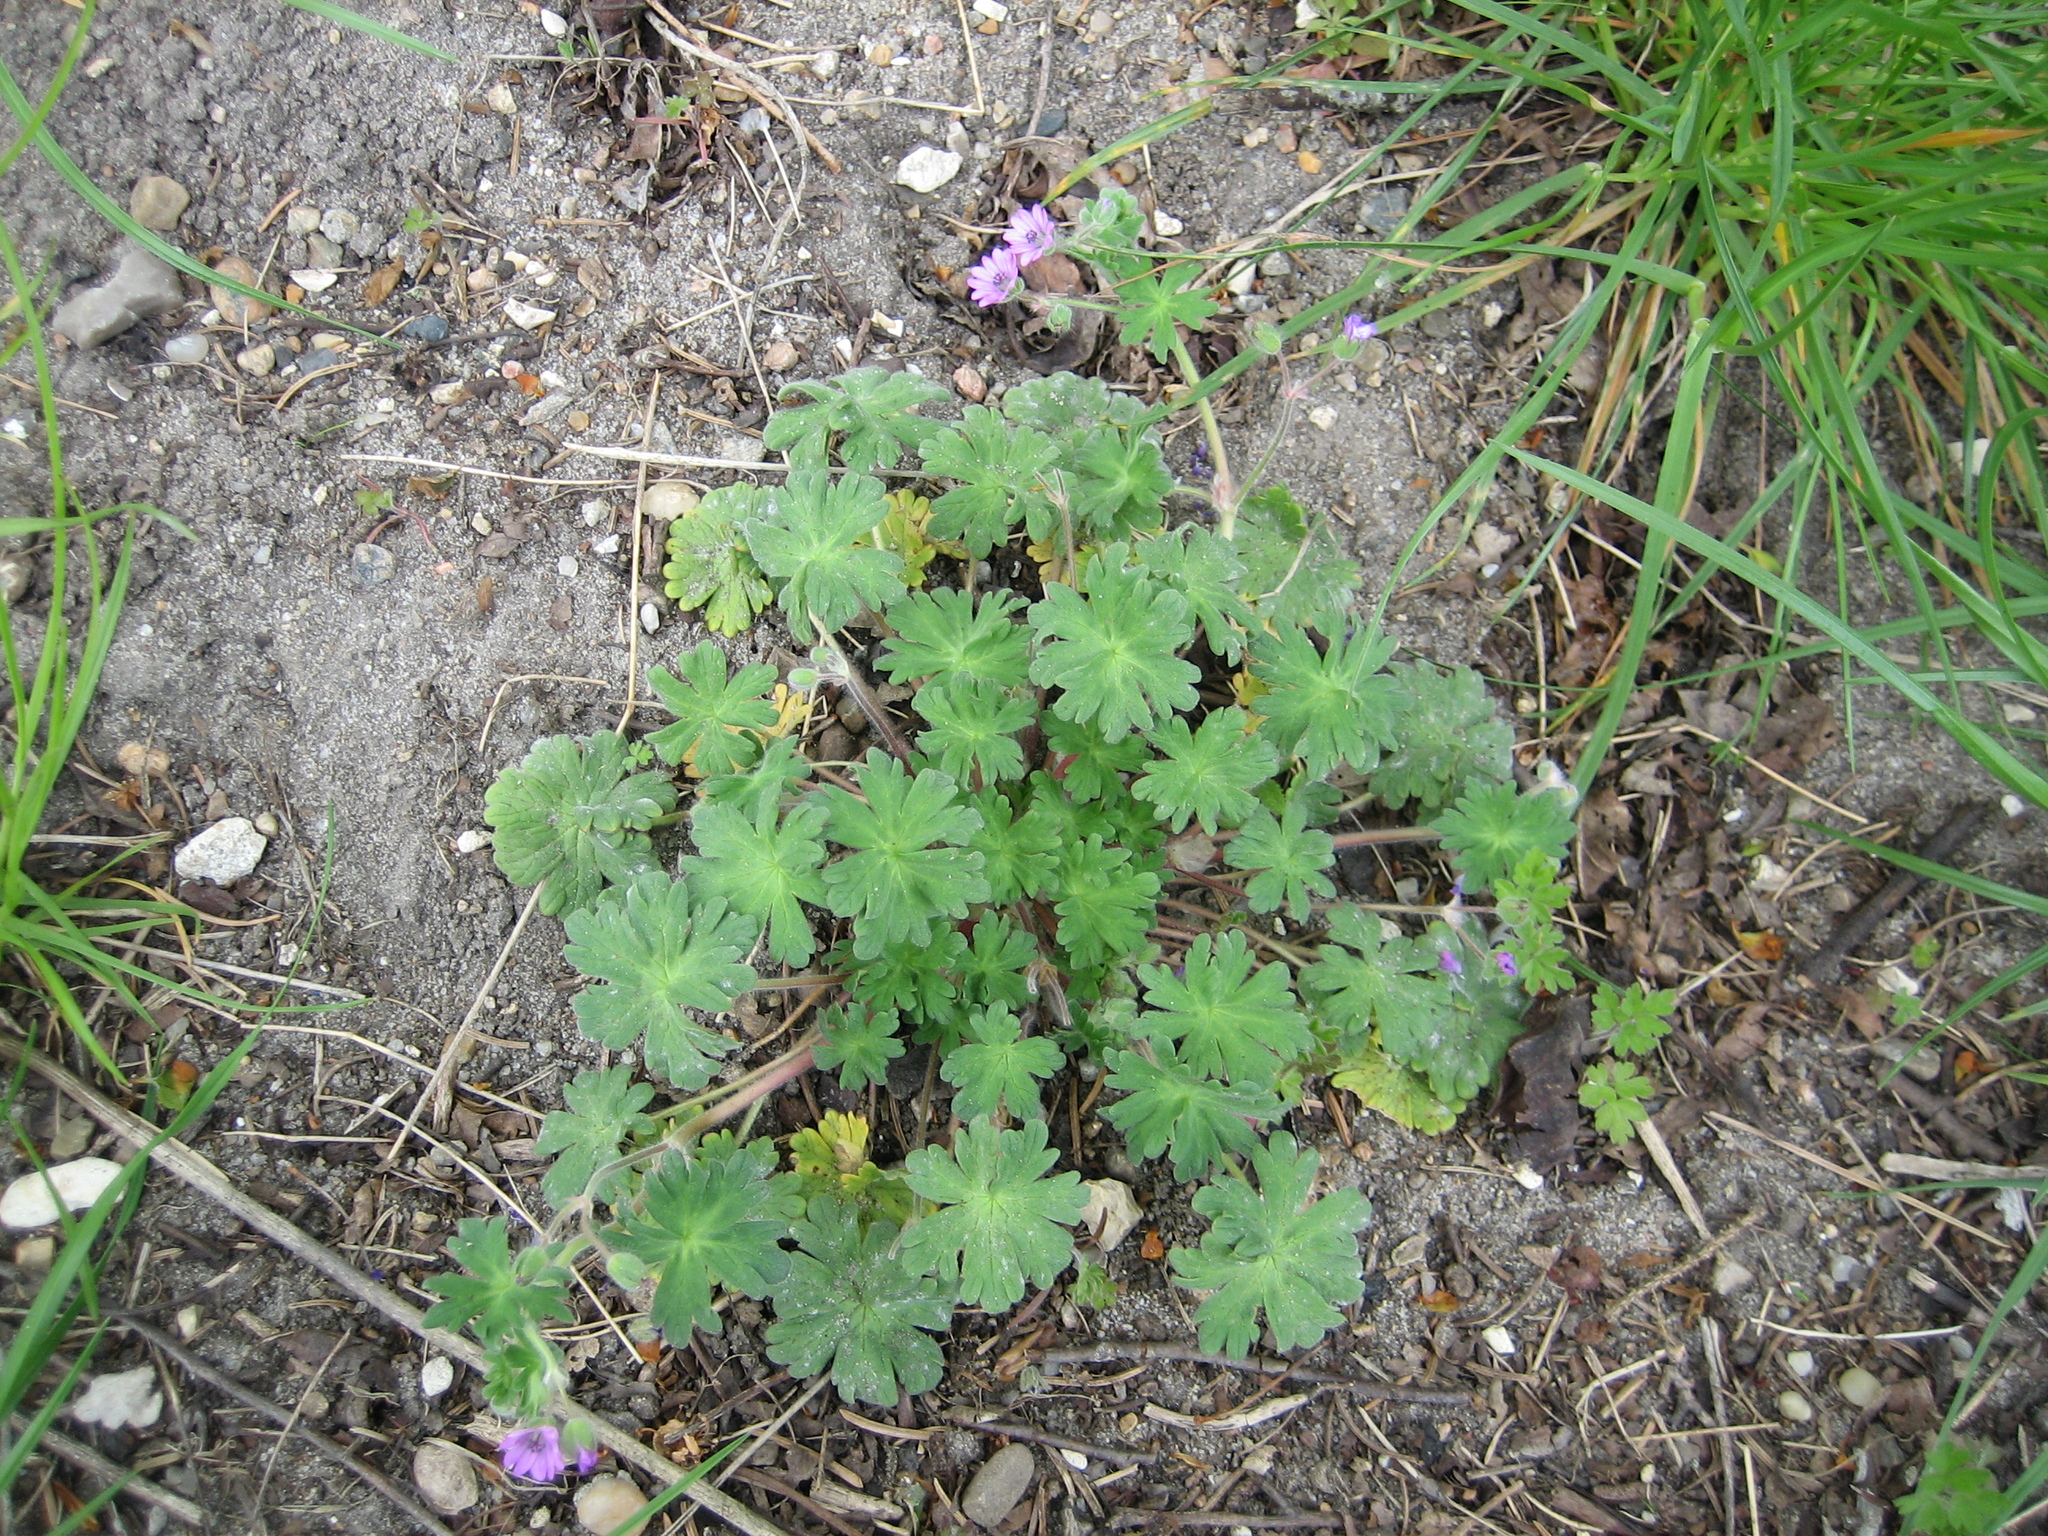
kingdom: Plantae
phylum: Tracheophyta
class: Magnoliopsida
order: Geraniales
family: Geraniaceae
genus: Geranium
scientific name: Geranium molle
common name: Dove's-foot crane's-bill
